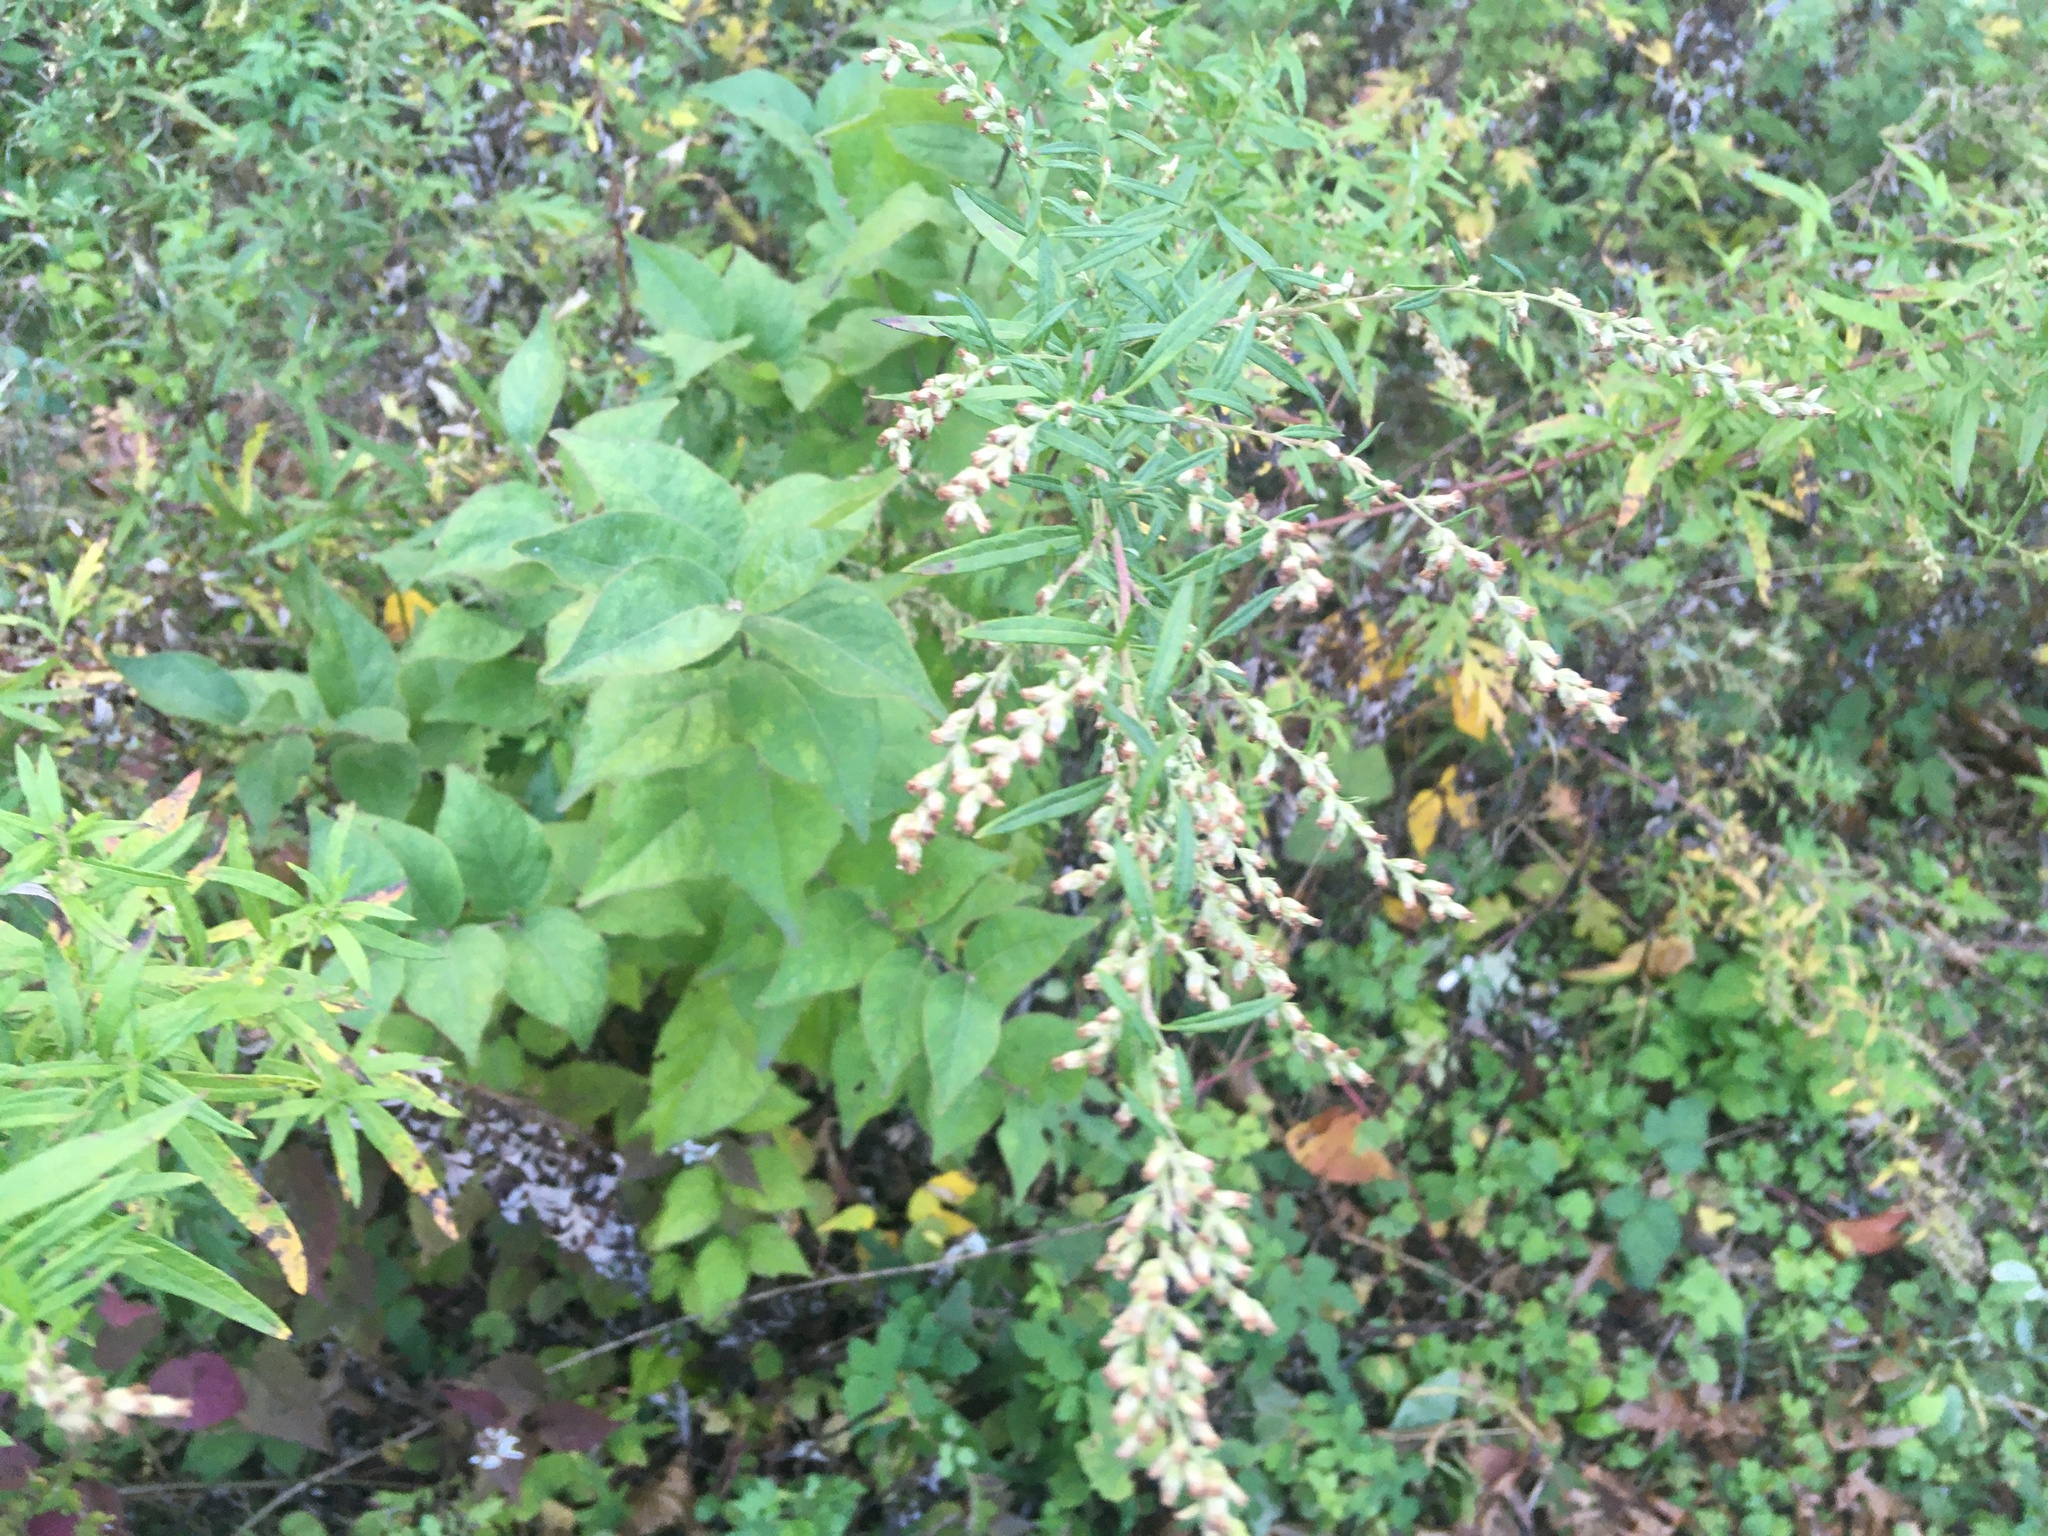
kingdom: Plantae
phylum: Tracheophyta
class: Magnoliopsida
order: Asterales
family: Asteraceae
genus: Artemisia
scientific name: Artemisia vulgaris
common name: Mugwort
